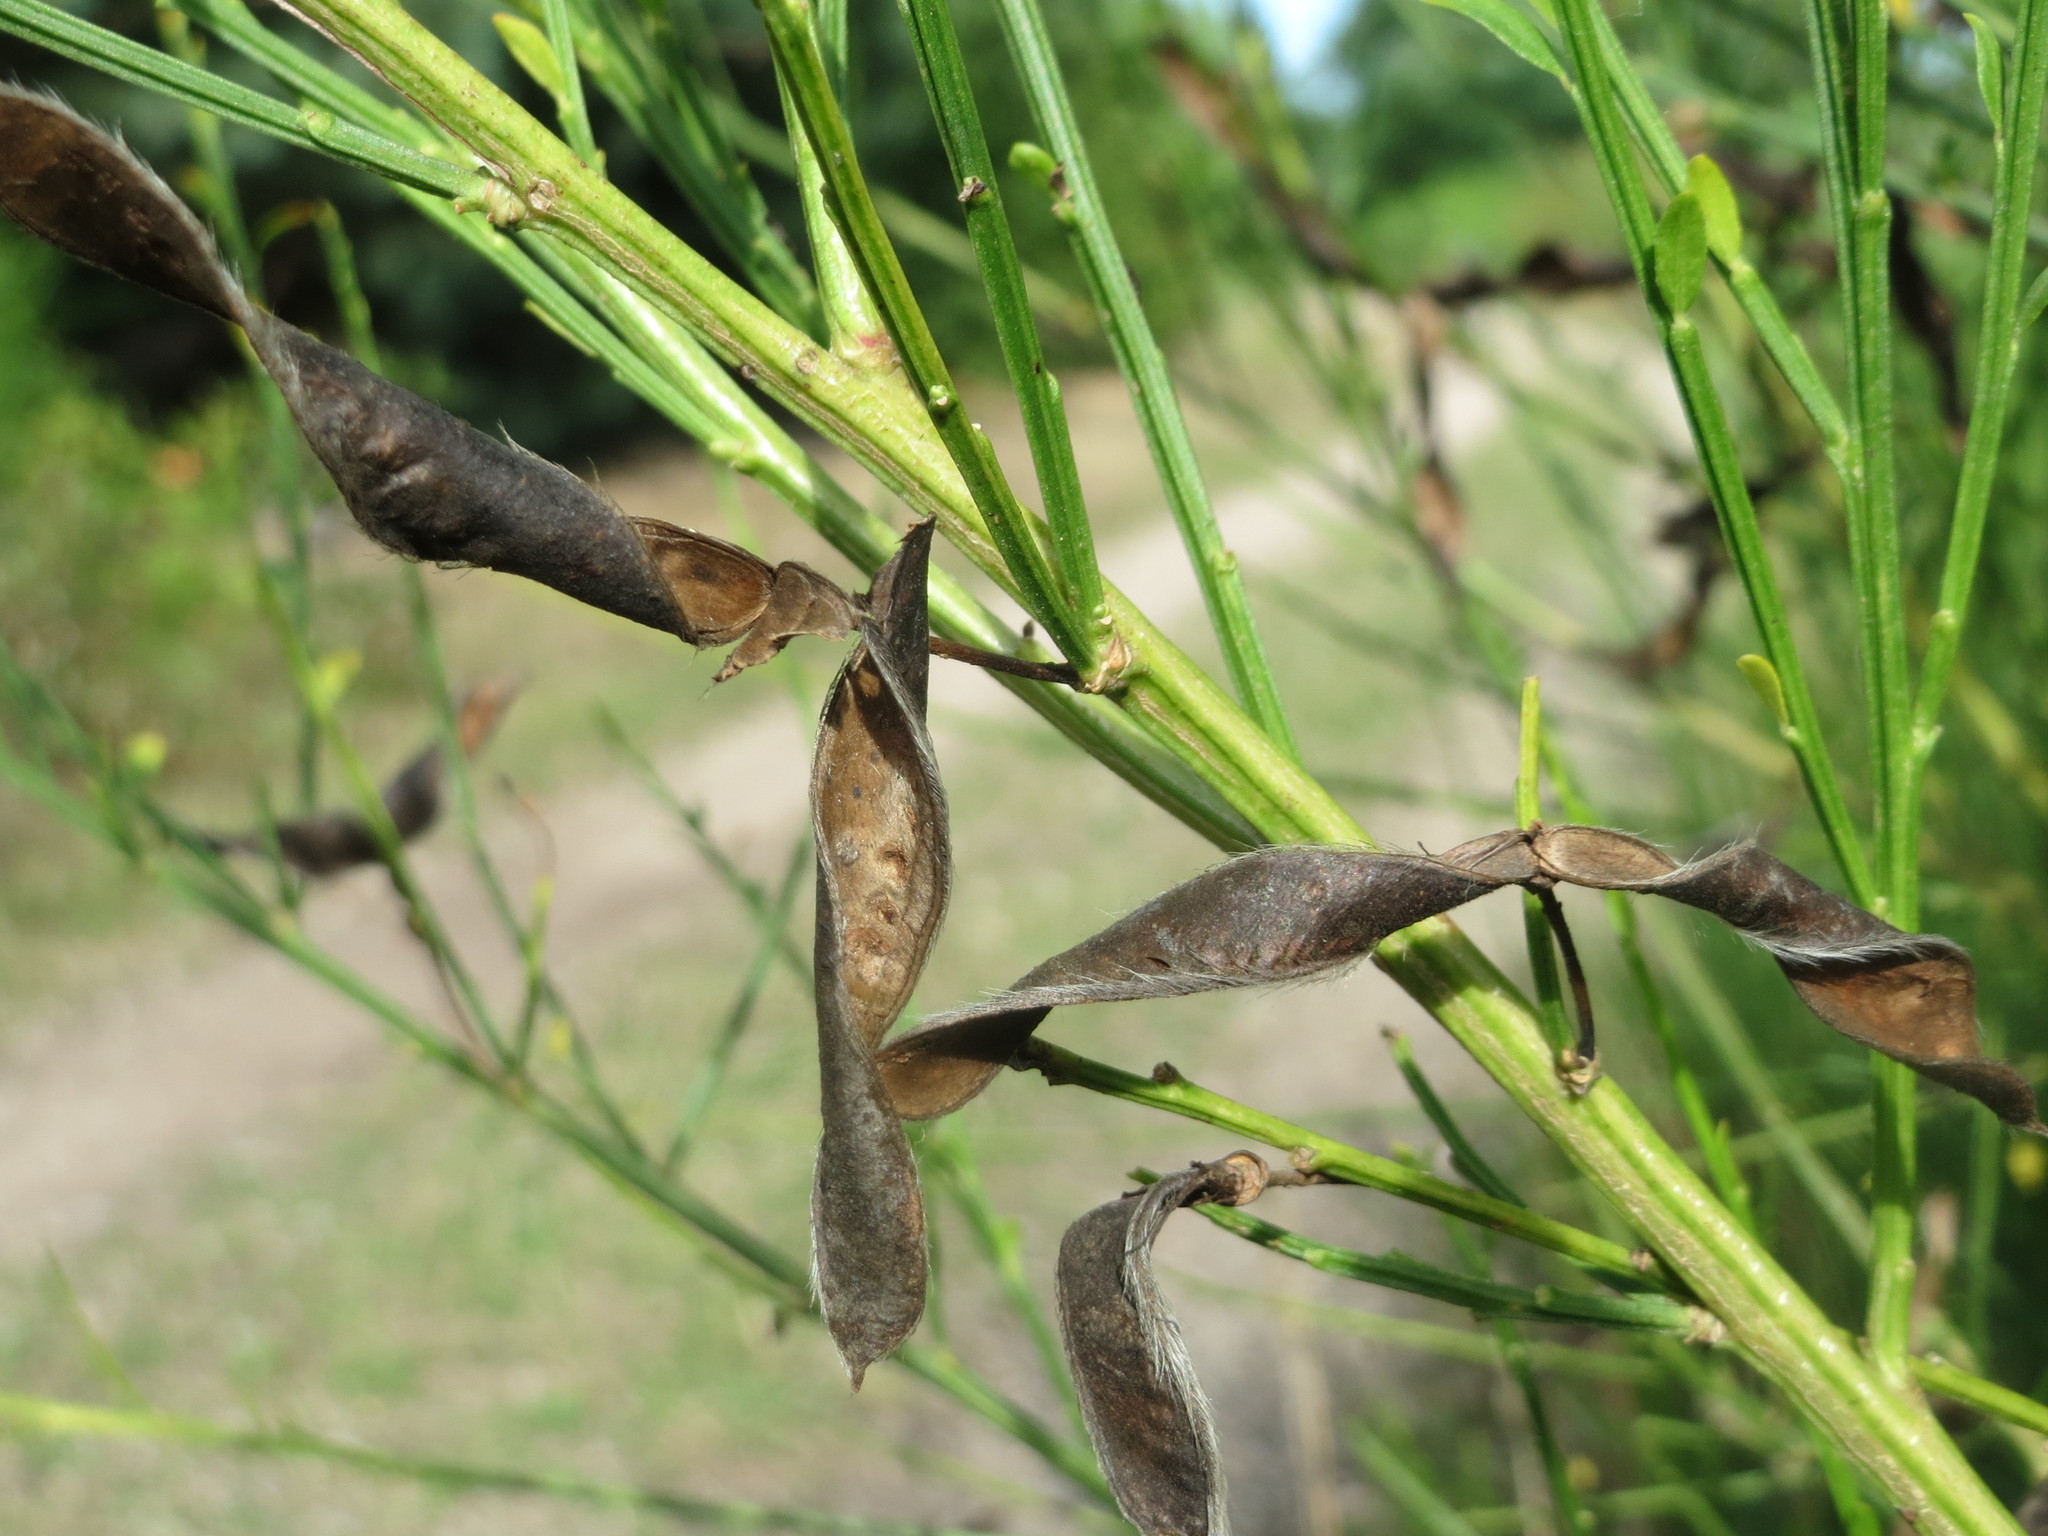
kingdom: Plantae
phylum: Tracheophyta
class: Magnoliopsida
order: Fabales
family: Fabaceae
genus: Cytisus
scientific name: Cytisus scoparius
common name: Scotch broom
